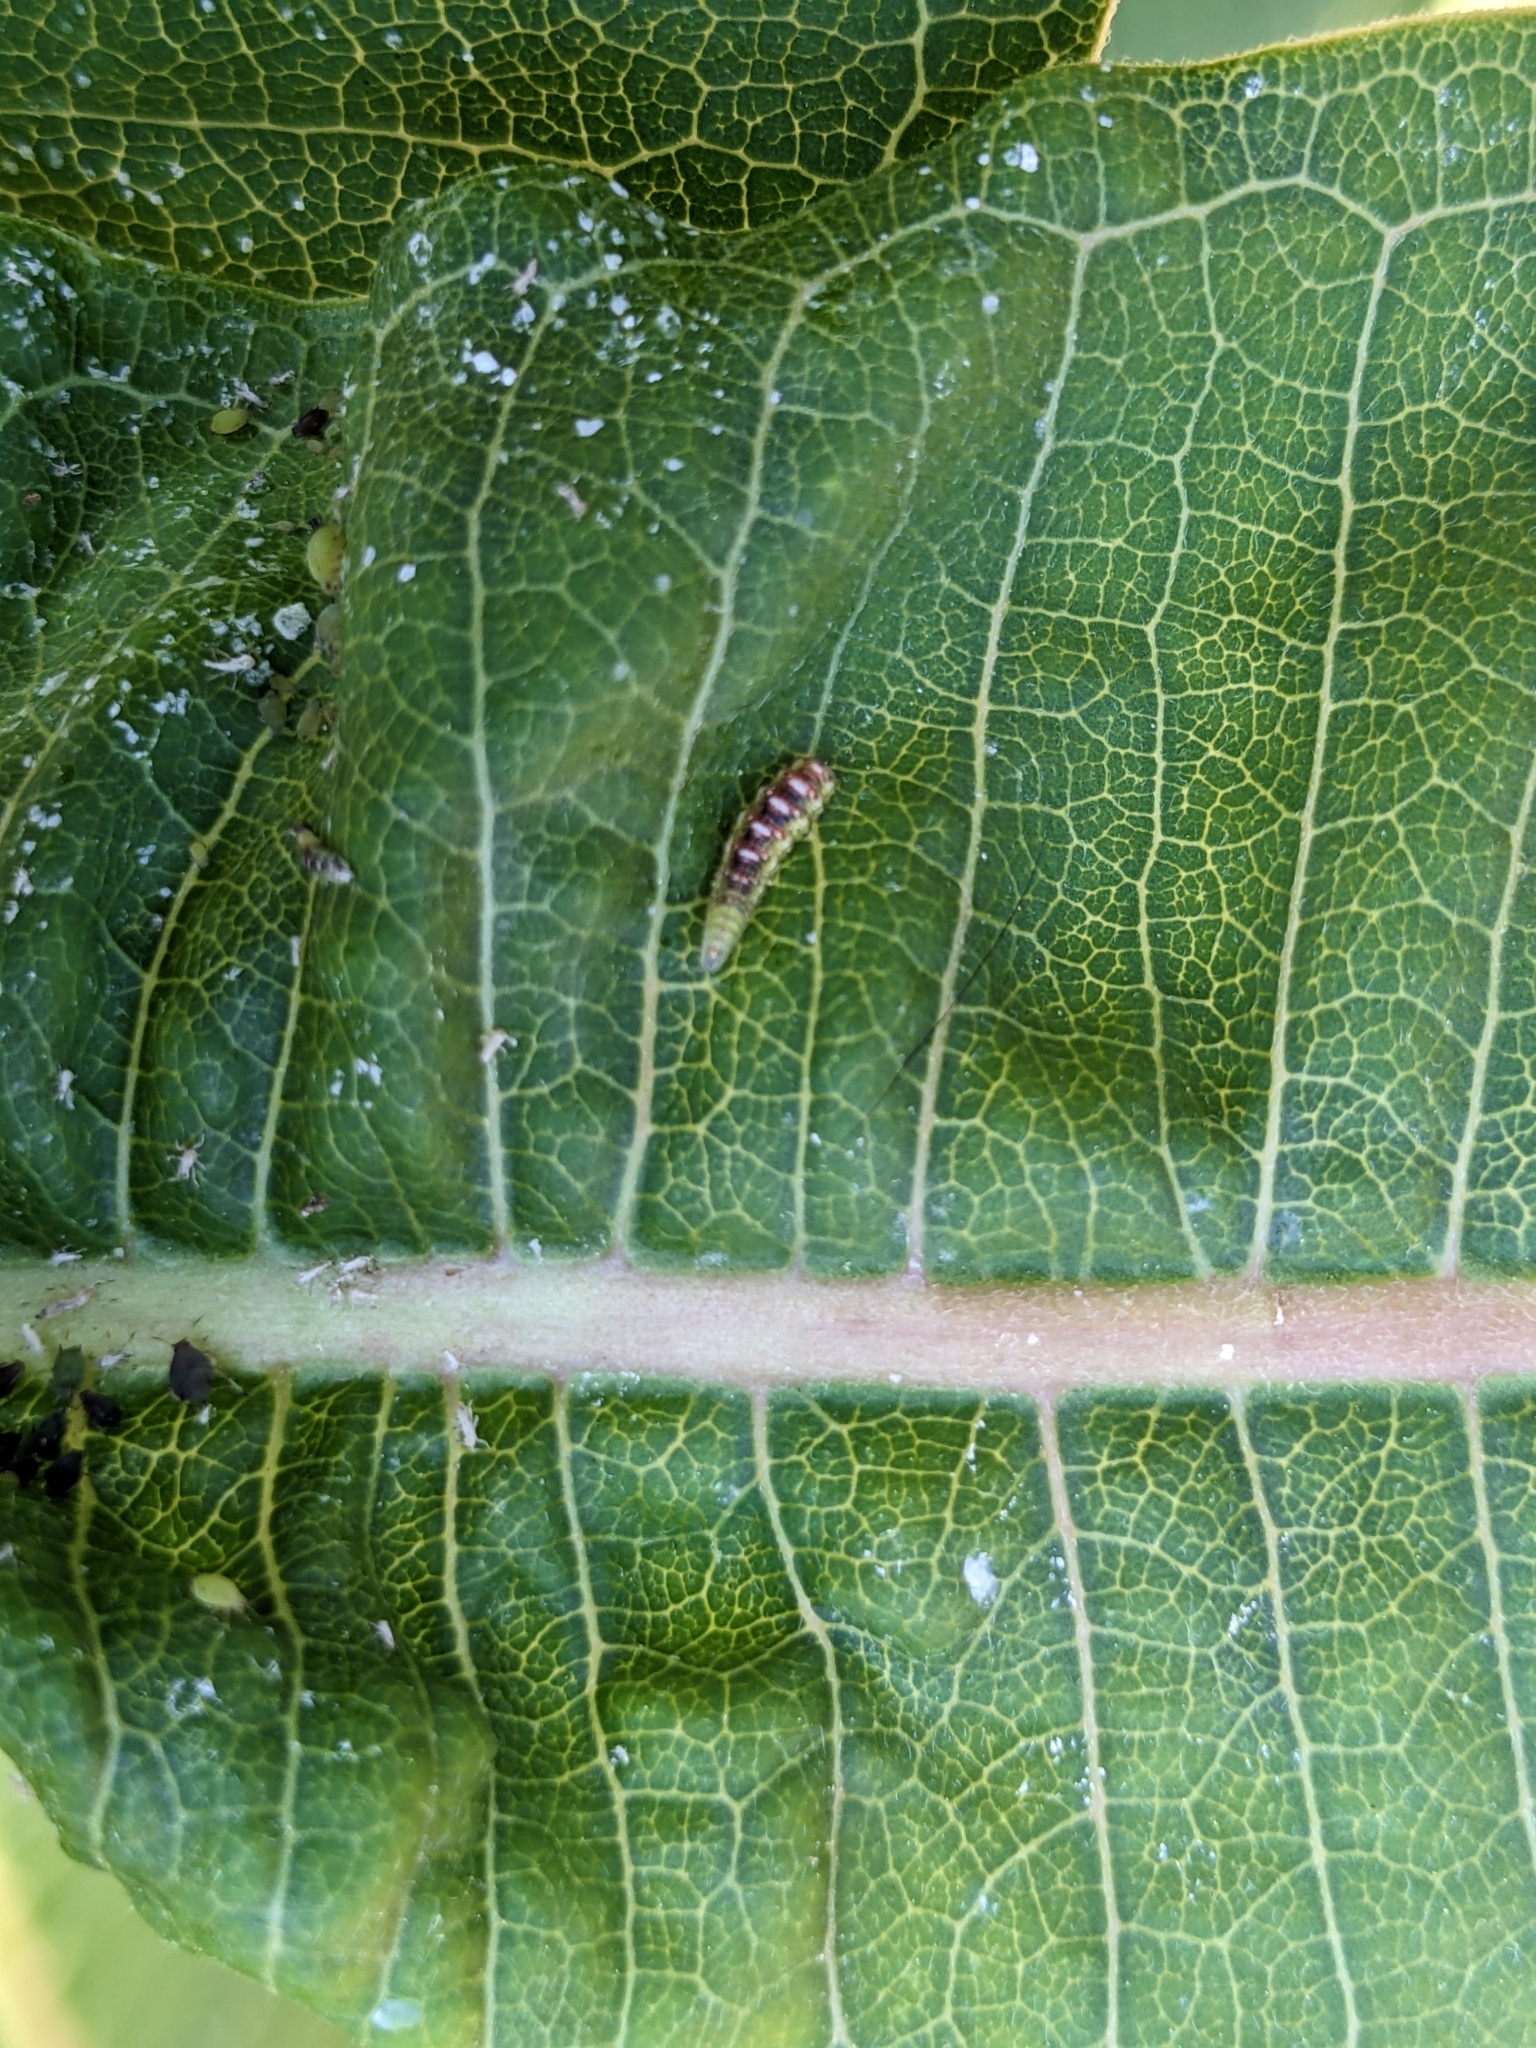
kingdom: Animalia
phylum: Arthropoda
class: Insecta
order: Diptera
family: Syrphidae
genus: Eupeodes
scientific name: Eupeodes pomus
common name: Short-tailed aphideater
